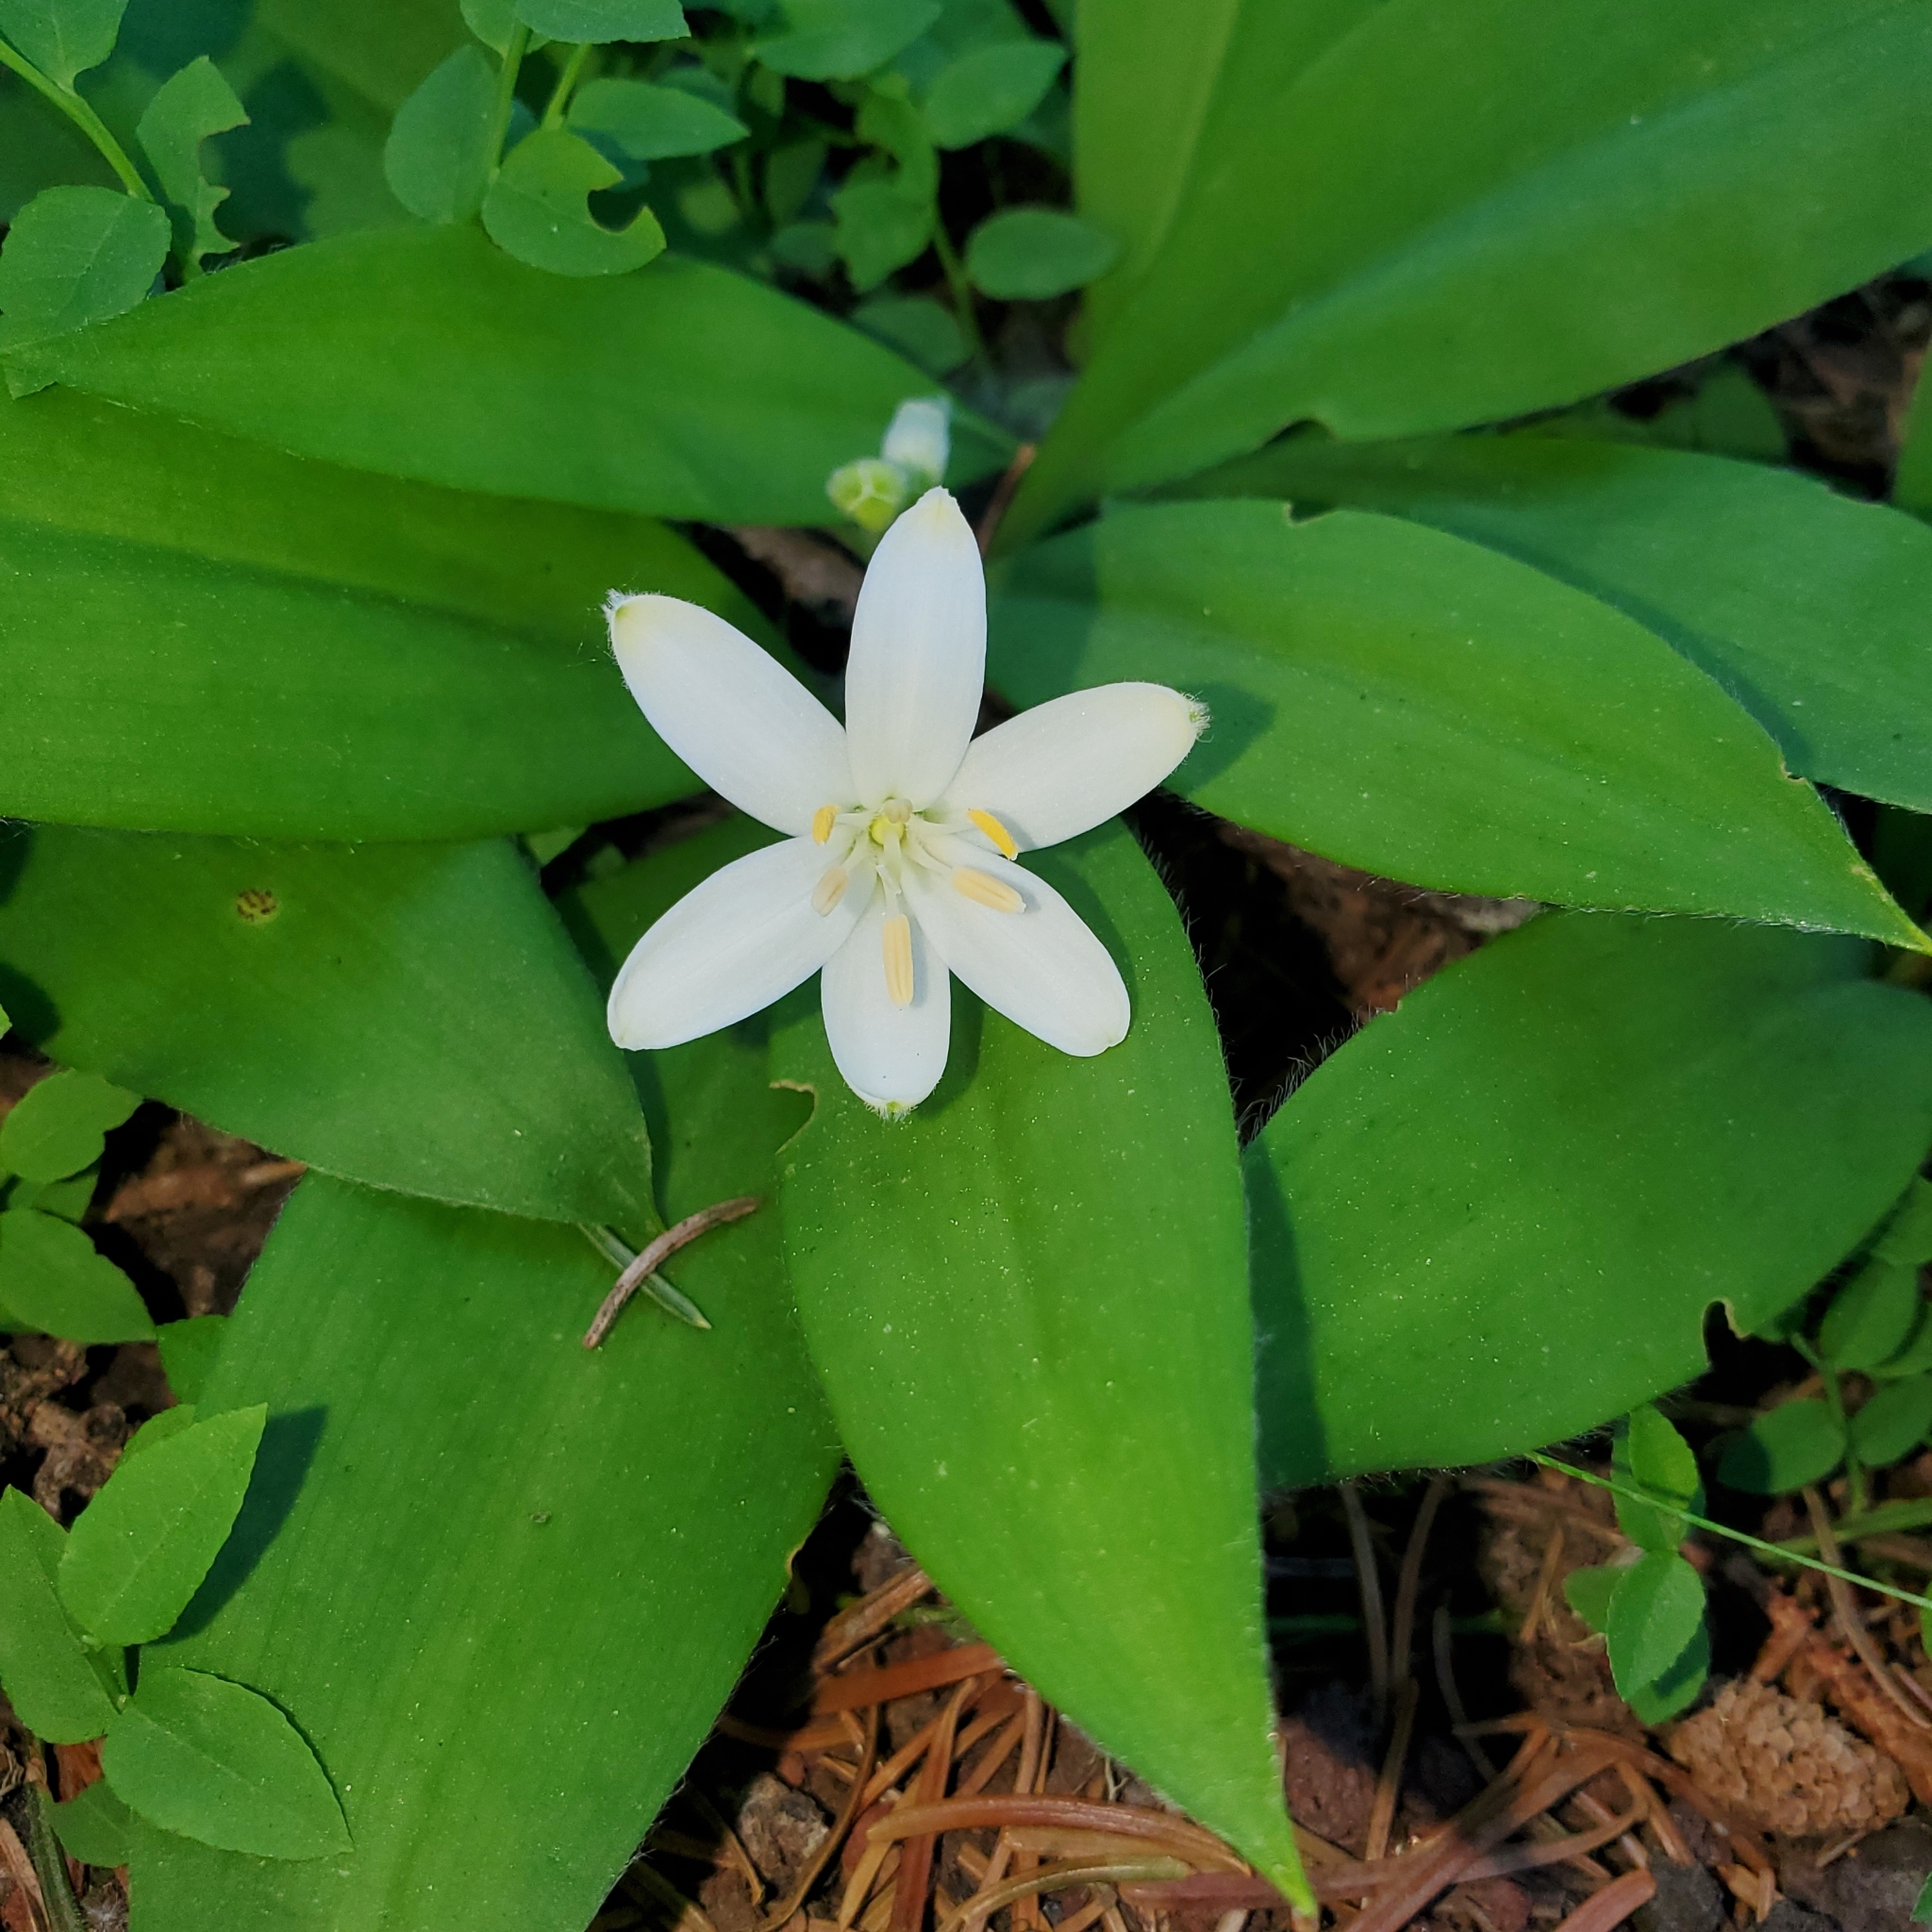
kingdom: Plantae
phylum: Tracheophyta
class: Liliopsida
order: Liliales
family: Liliaceae
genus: Clintonia
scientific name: Clintonia uniflora
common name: Queen's cup
